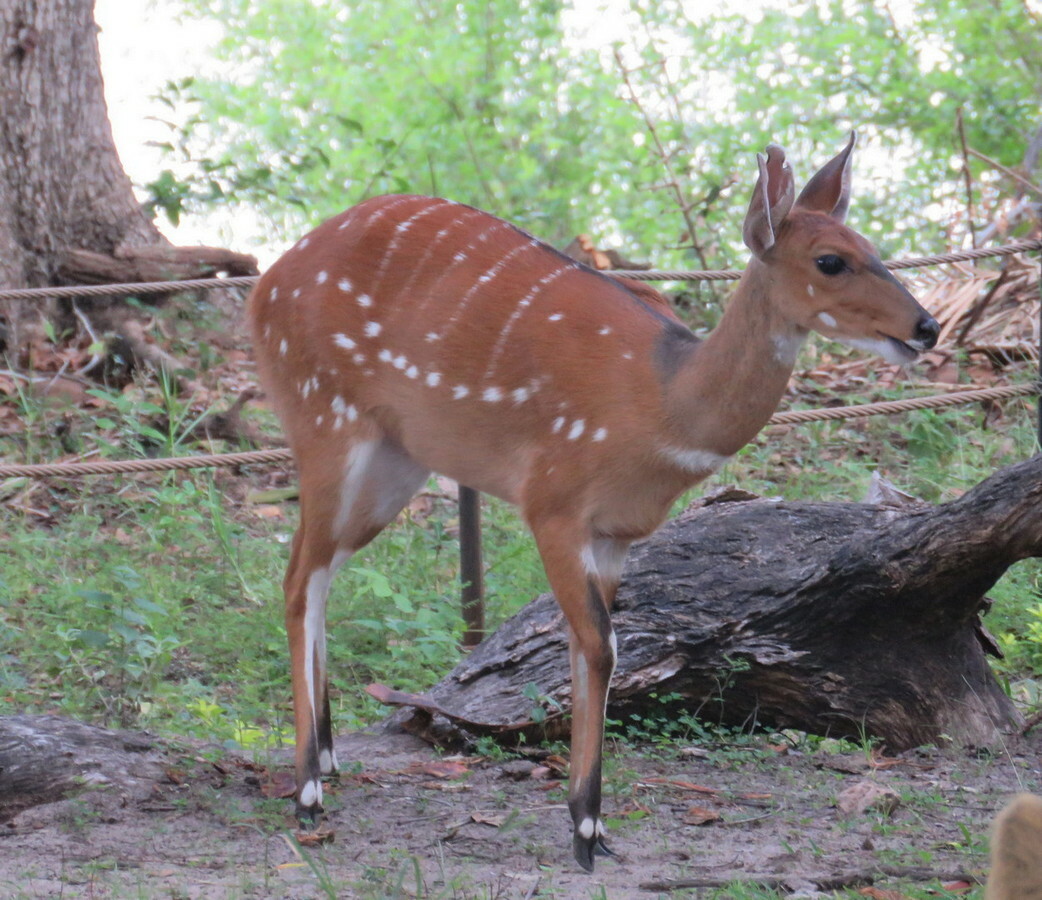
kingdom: Animalia
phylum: Chordata
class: Mammalia
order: Artiodactyla
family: Bovidae
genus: Tragelaphus
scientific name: Tragelaphus scriptus
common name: Bushbuck
